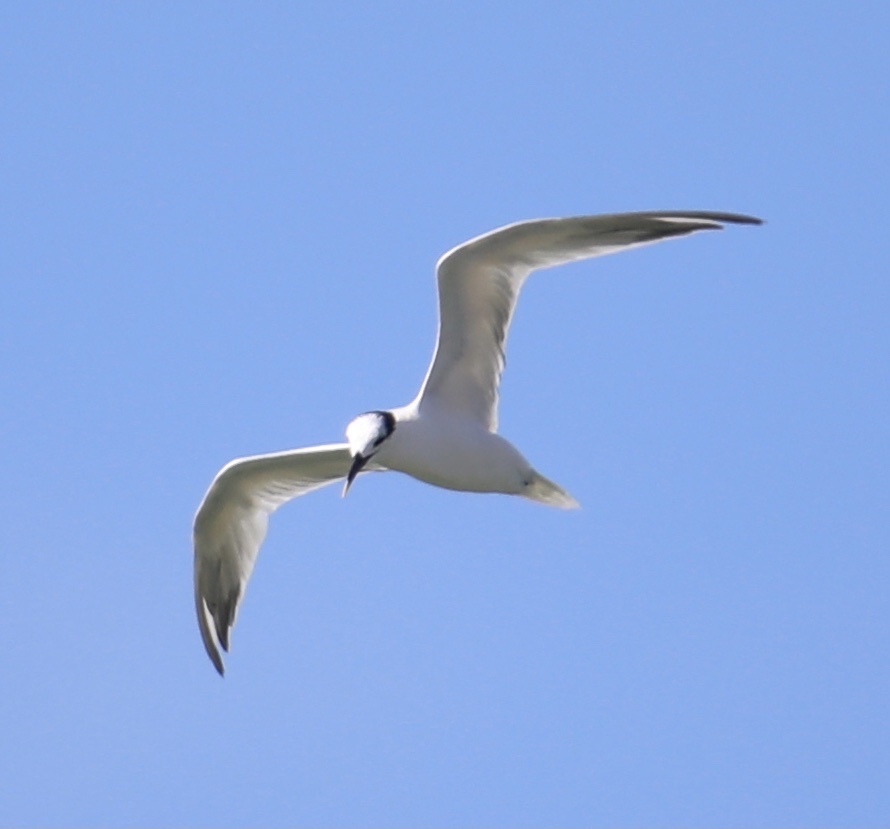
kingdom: Animalia
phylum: Chordata
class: Aves
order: Charadriiformes
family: Laridae
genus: Thalasseus
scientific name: Thalasseus sandvicensis
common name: Sandwich tern
